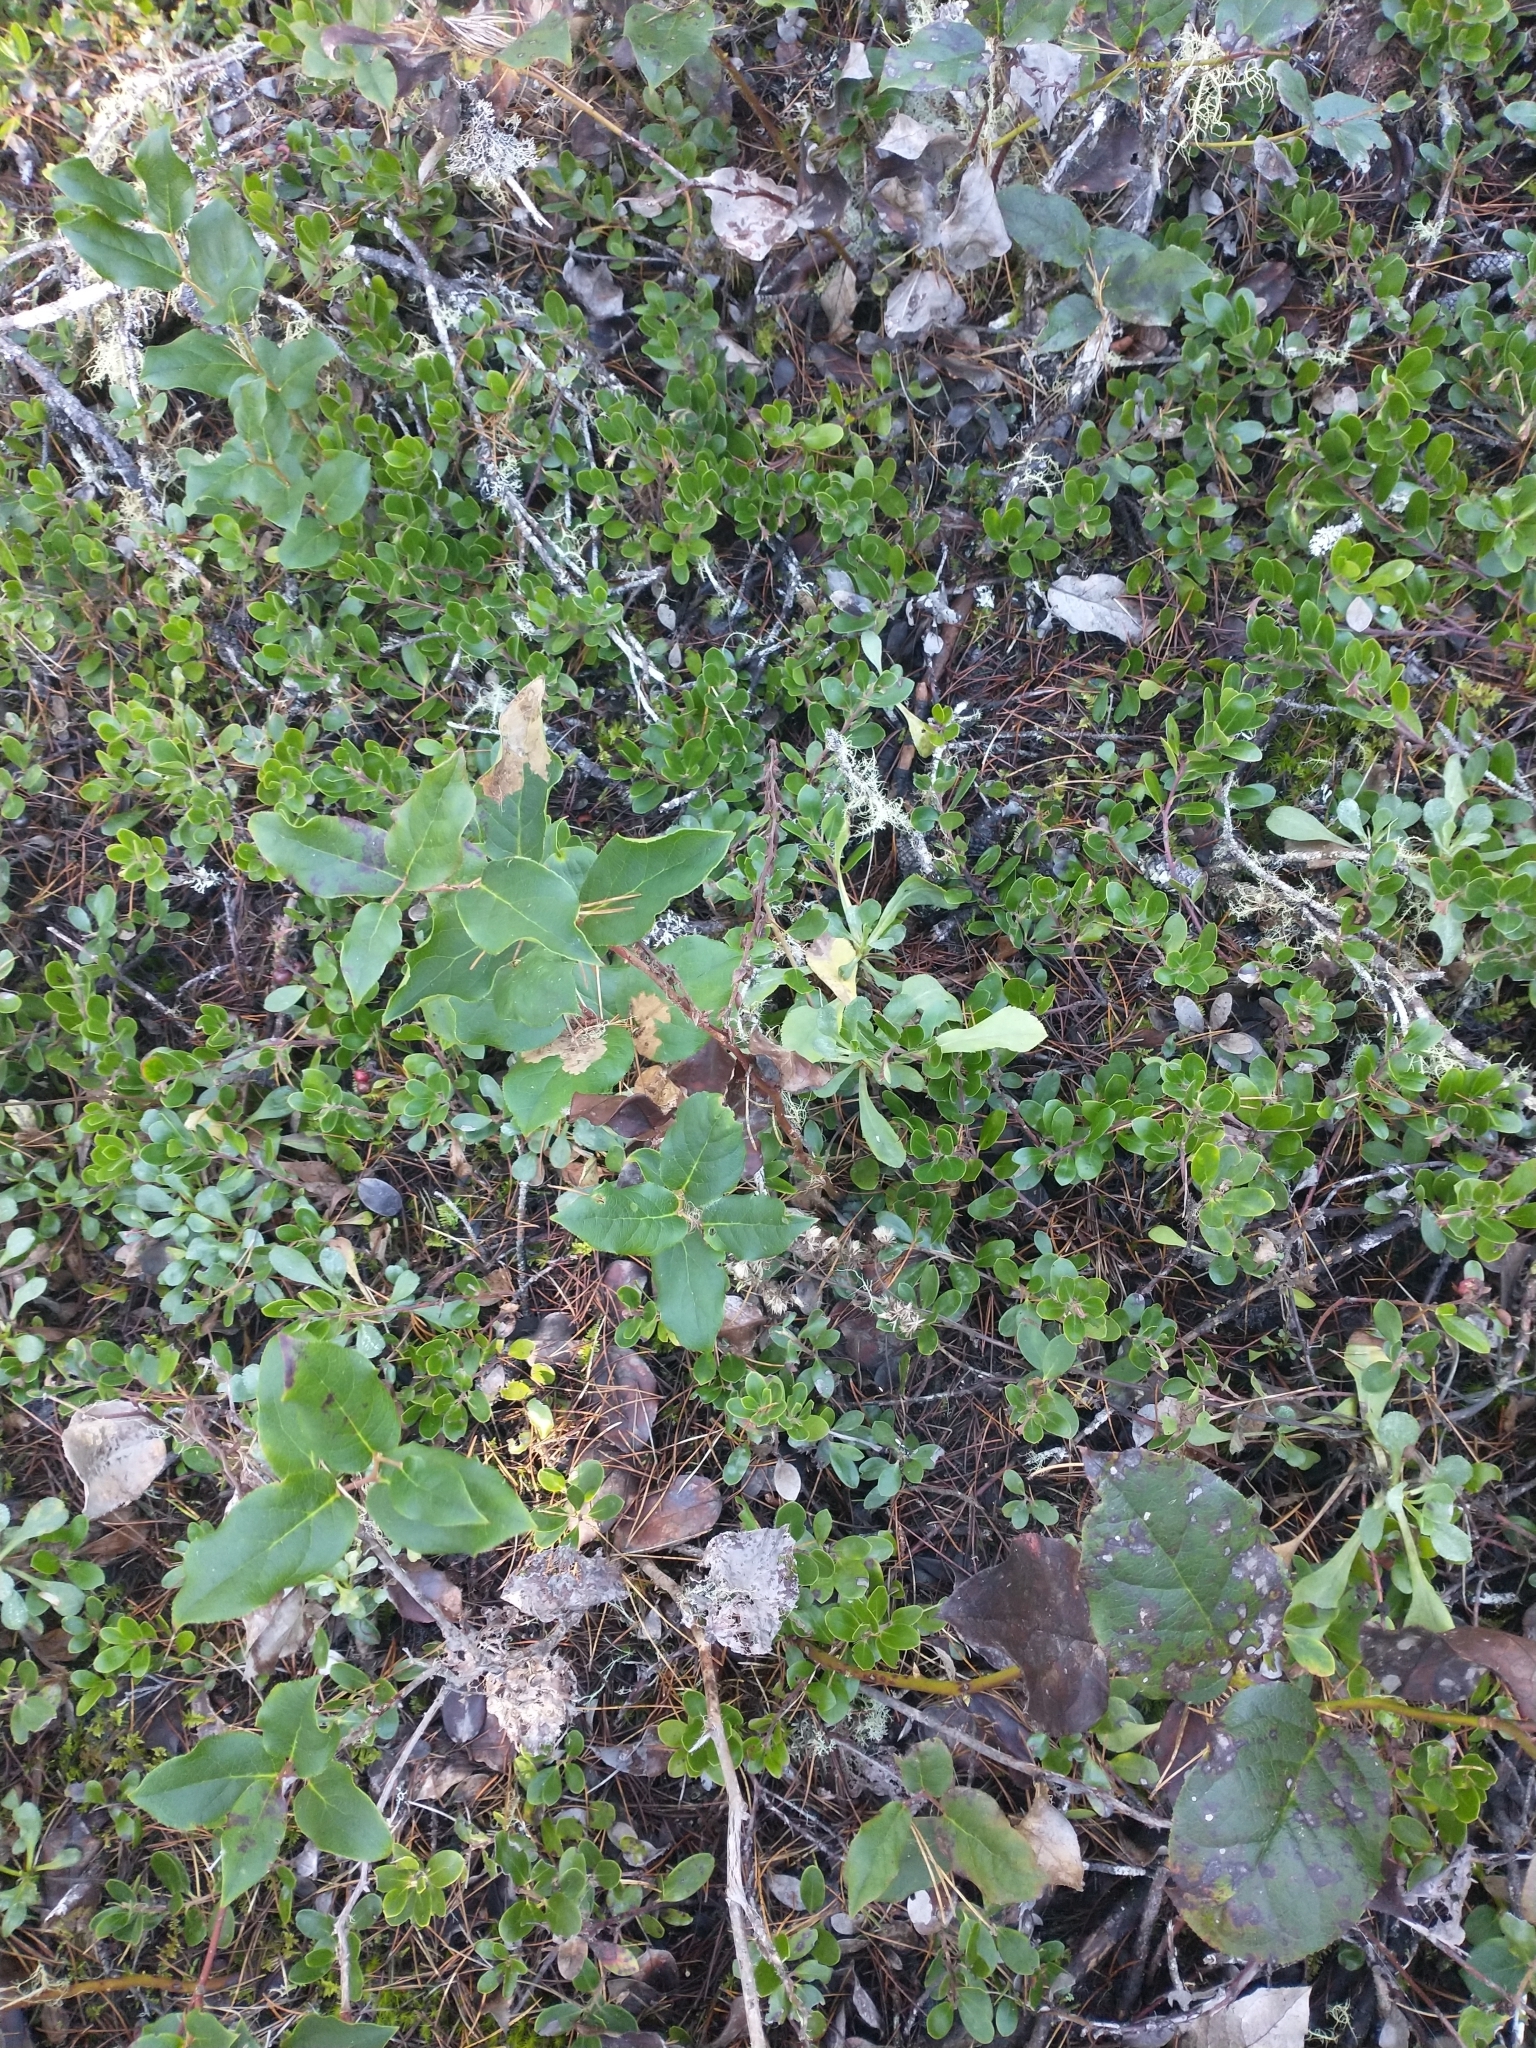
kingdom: Plantae
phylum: Tracheophyta
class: Magnoliopsida
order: Ericales
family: Ericaceae
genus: Arctostaphylos
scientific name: Arctostaphylos uva-ursi
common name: Bearberry
